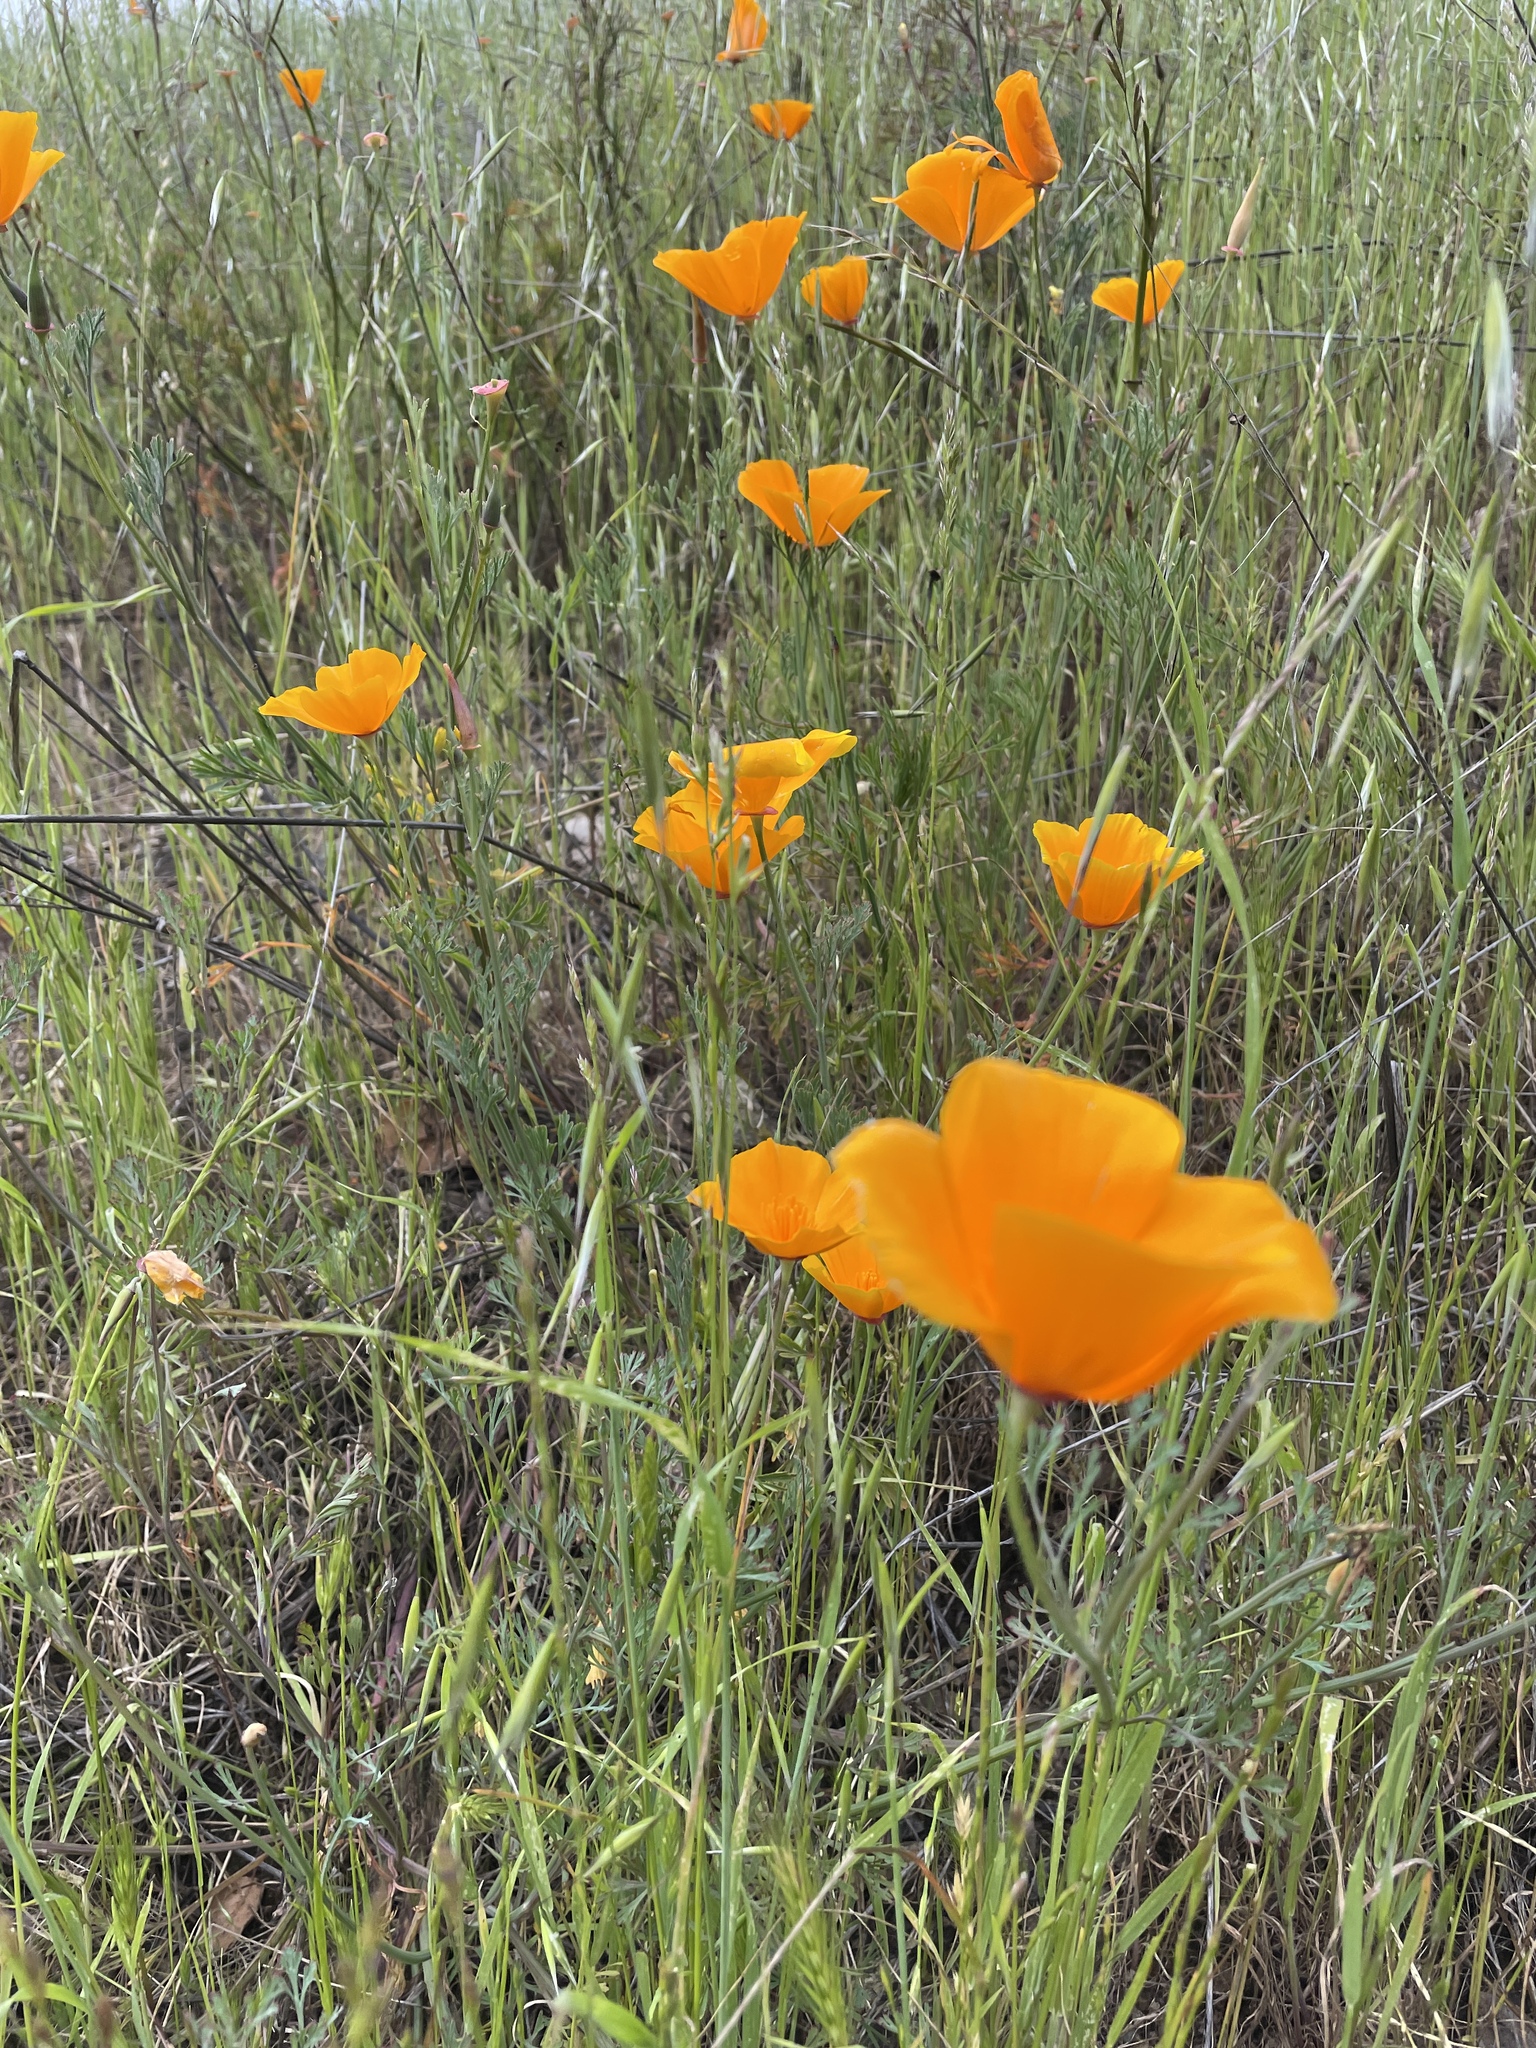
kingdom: Plantae
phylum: Tracheophyta
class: Magnoliopsida
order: Ranunculales
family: Papaveraceae
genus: Eschscholzia
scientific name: Eschscholzia californica
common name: California poppy
